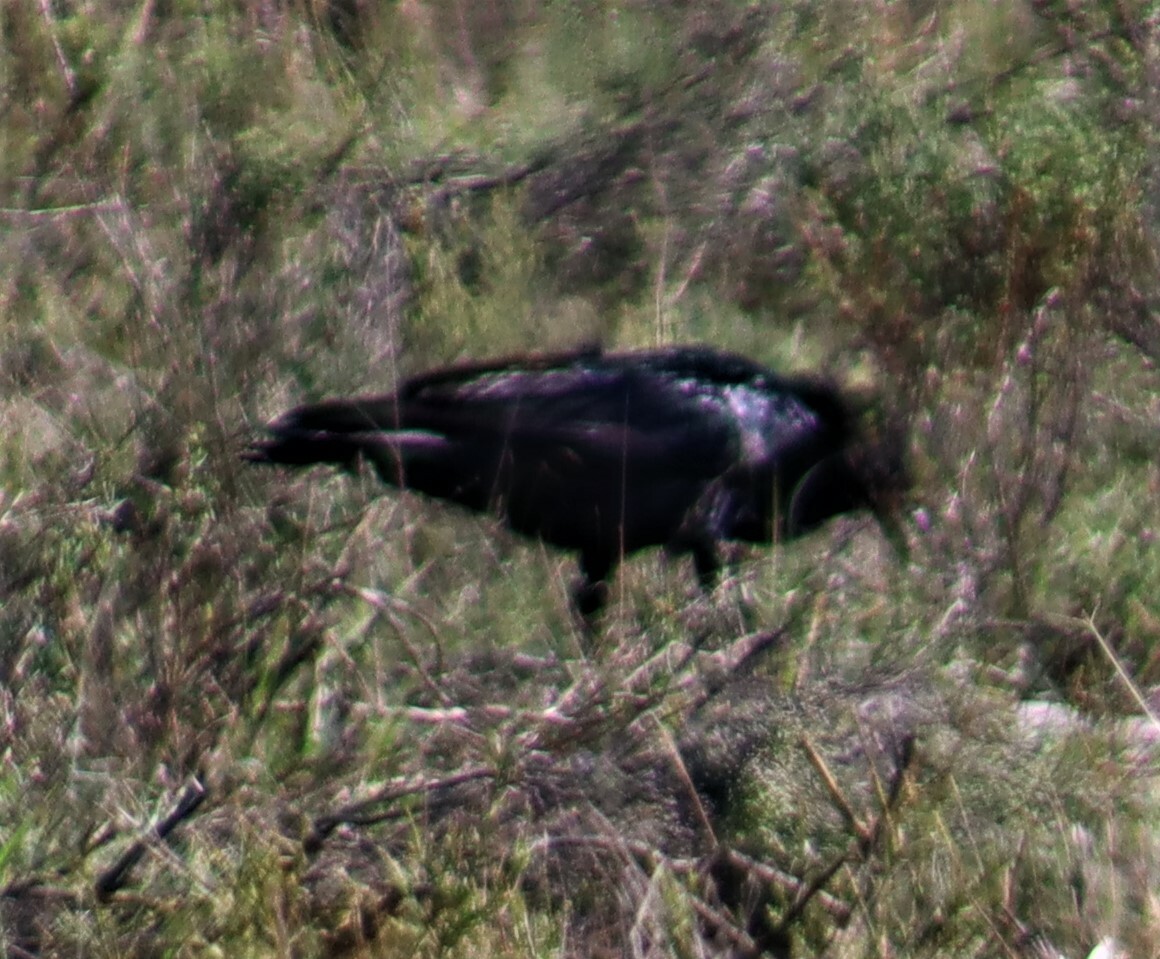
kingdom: Animalia
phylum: Chordata
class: Aves
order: Passeriformes
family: Corvidae
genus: Corvus
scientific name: Corvus capensis
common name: Cape crow
